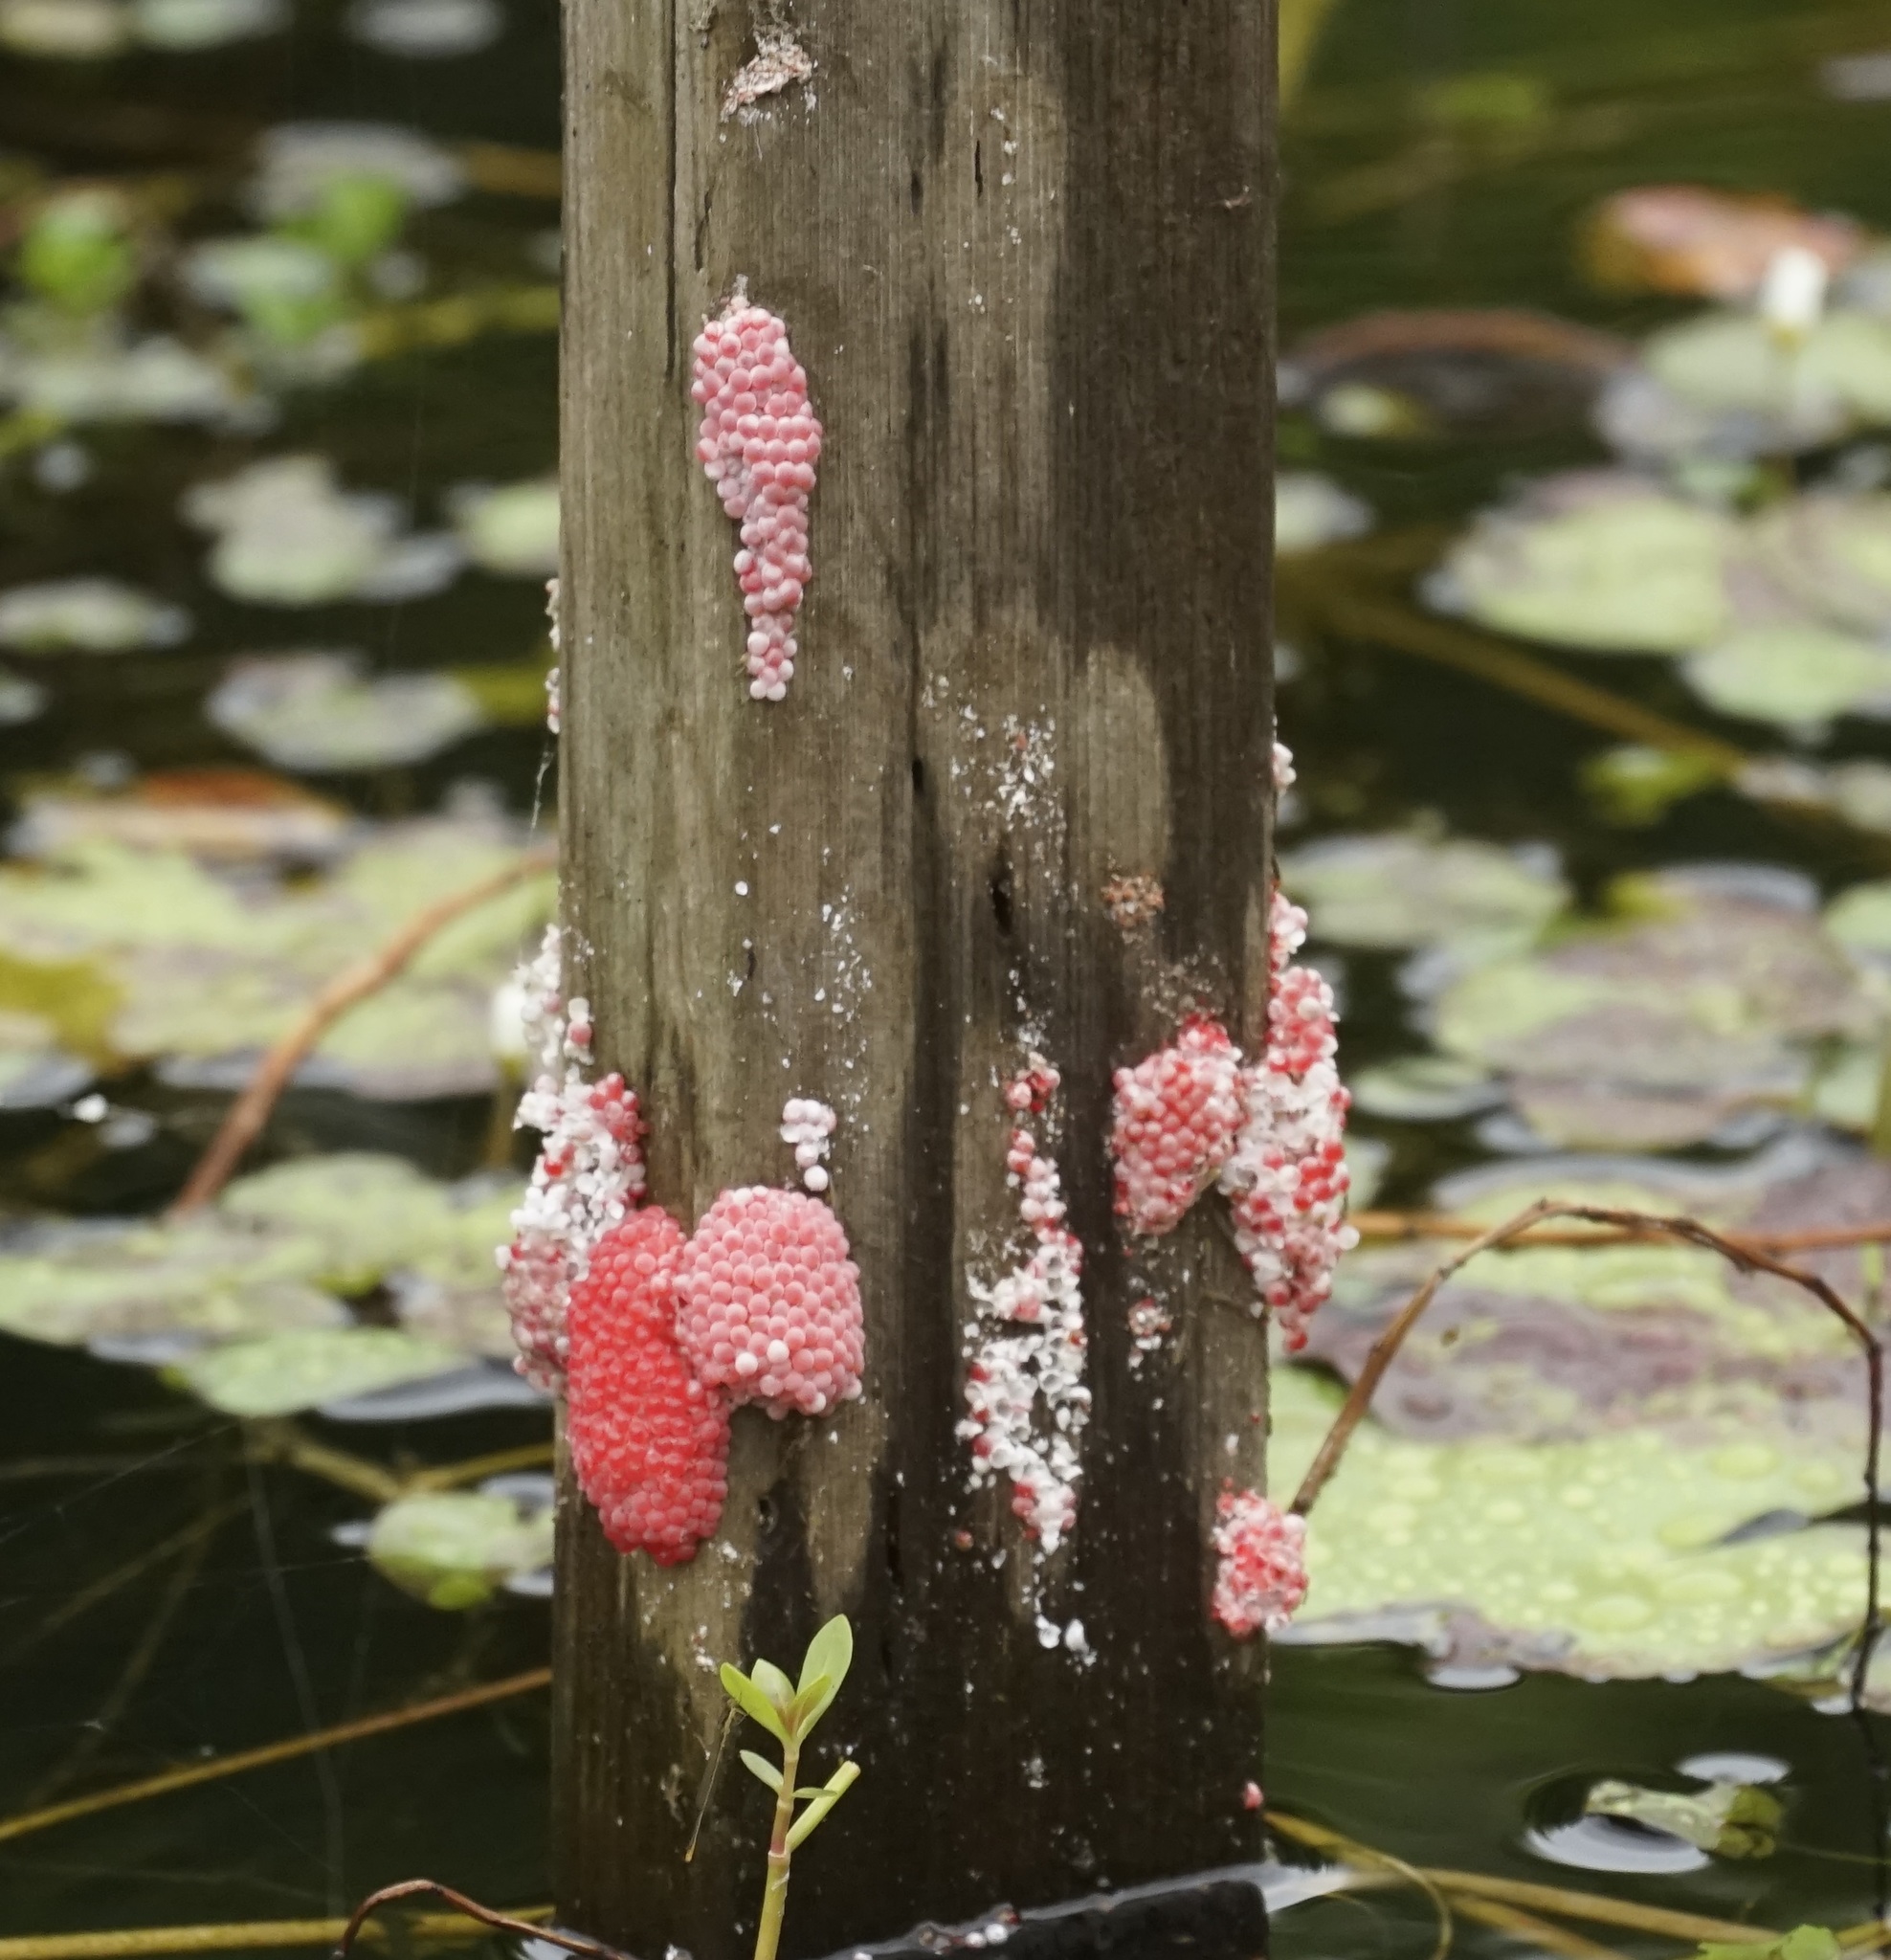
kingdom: Animalia
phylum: Mollusca
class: Gastropoda
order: Architaenioglossa
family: Ampullariidae
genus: Pomacea
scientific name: Pomacea canaliculata
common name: Channeled applesnail
